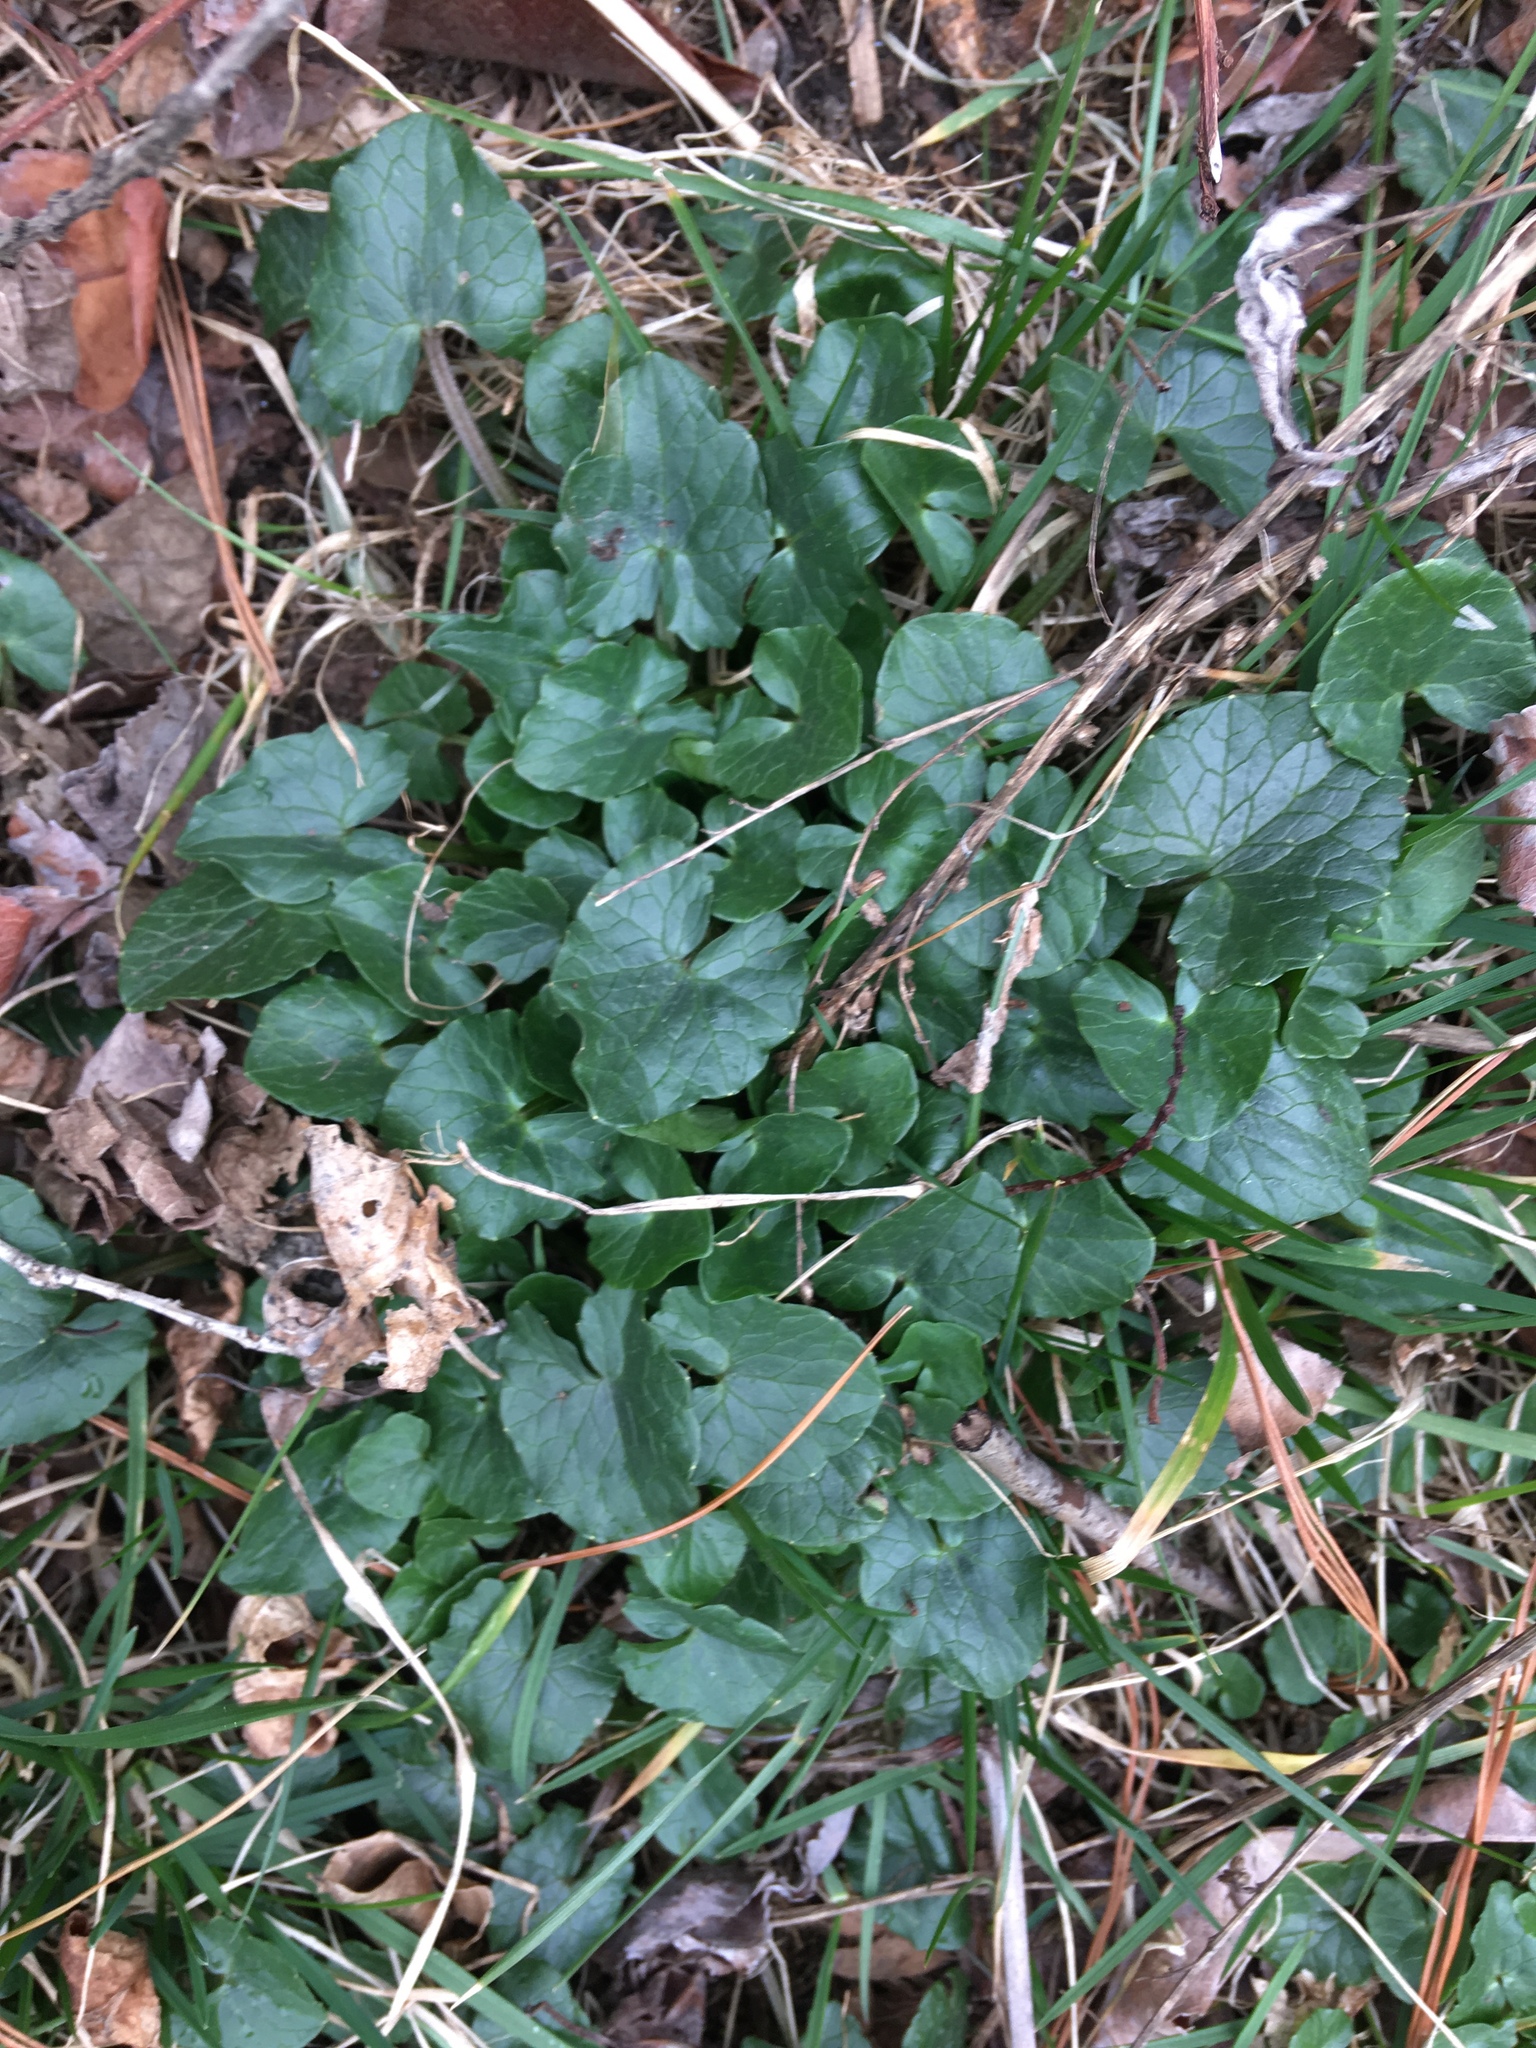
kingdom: Plantae
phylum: Tracheophyta
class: Magnoliopsida
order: Ranunculales
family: Ranunculaceae
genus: Ficaria
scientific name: Ficaria verna
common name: Lesser celandine
